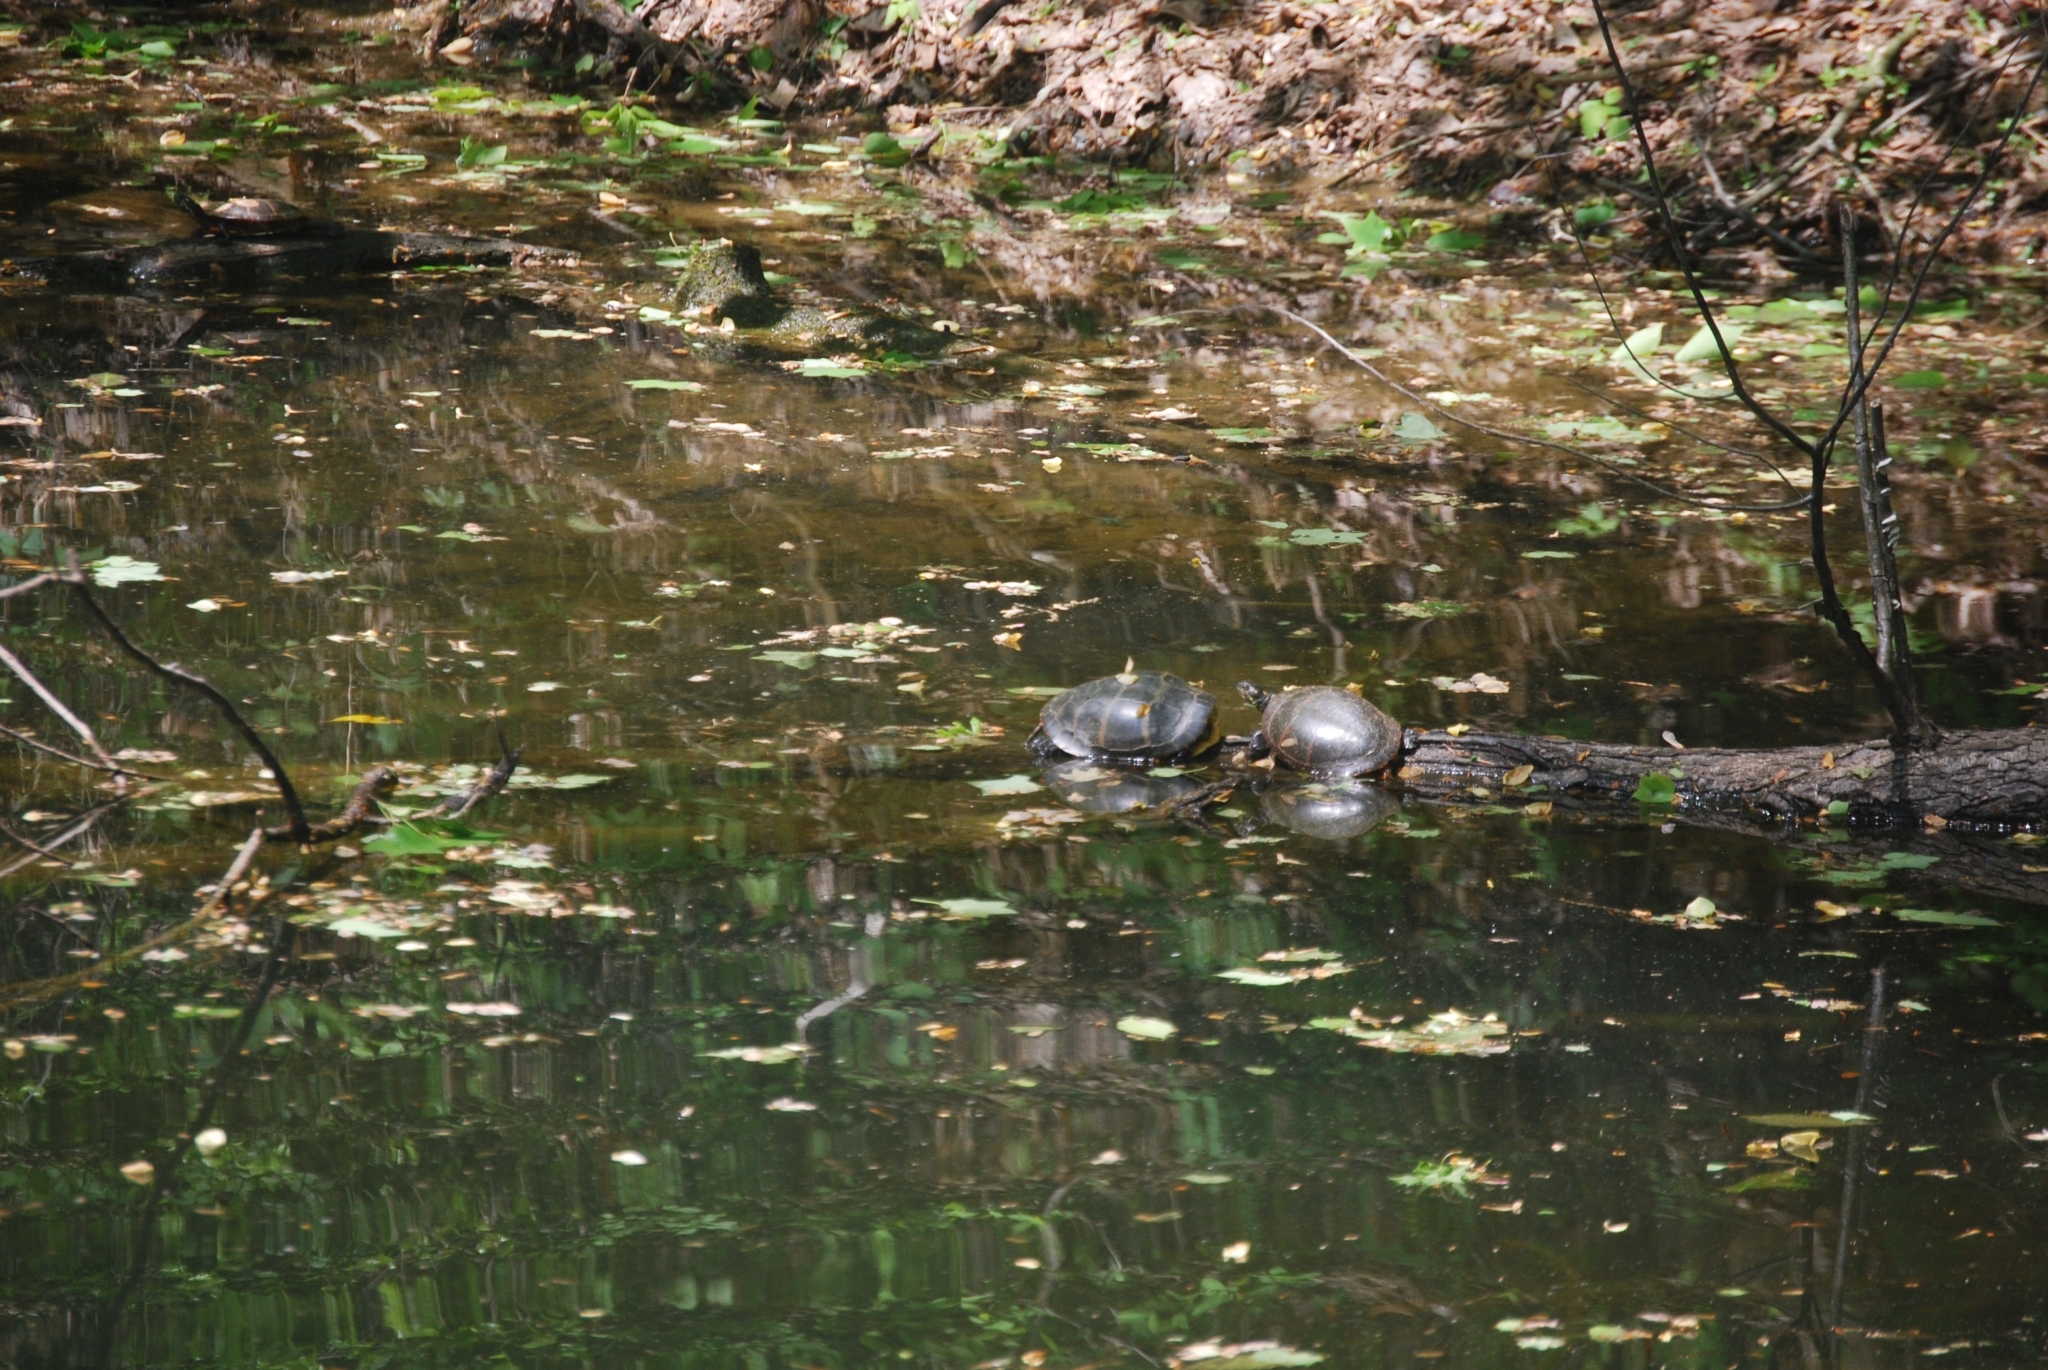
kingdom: Animalia
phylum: Chordata
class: Testudines
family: Emydidae
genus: Chrysemys
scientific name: Chrysemys picta
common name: Painted turtle
